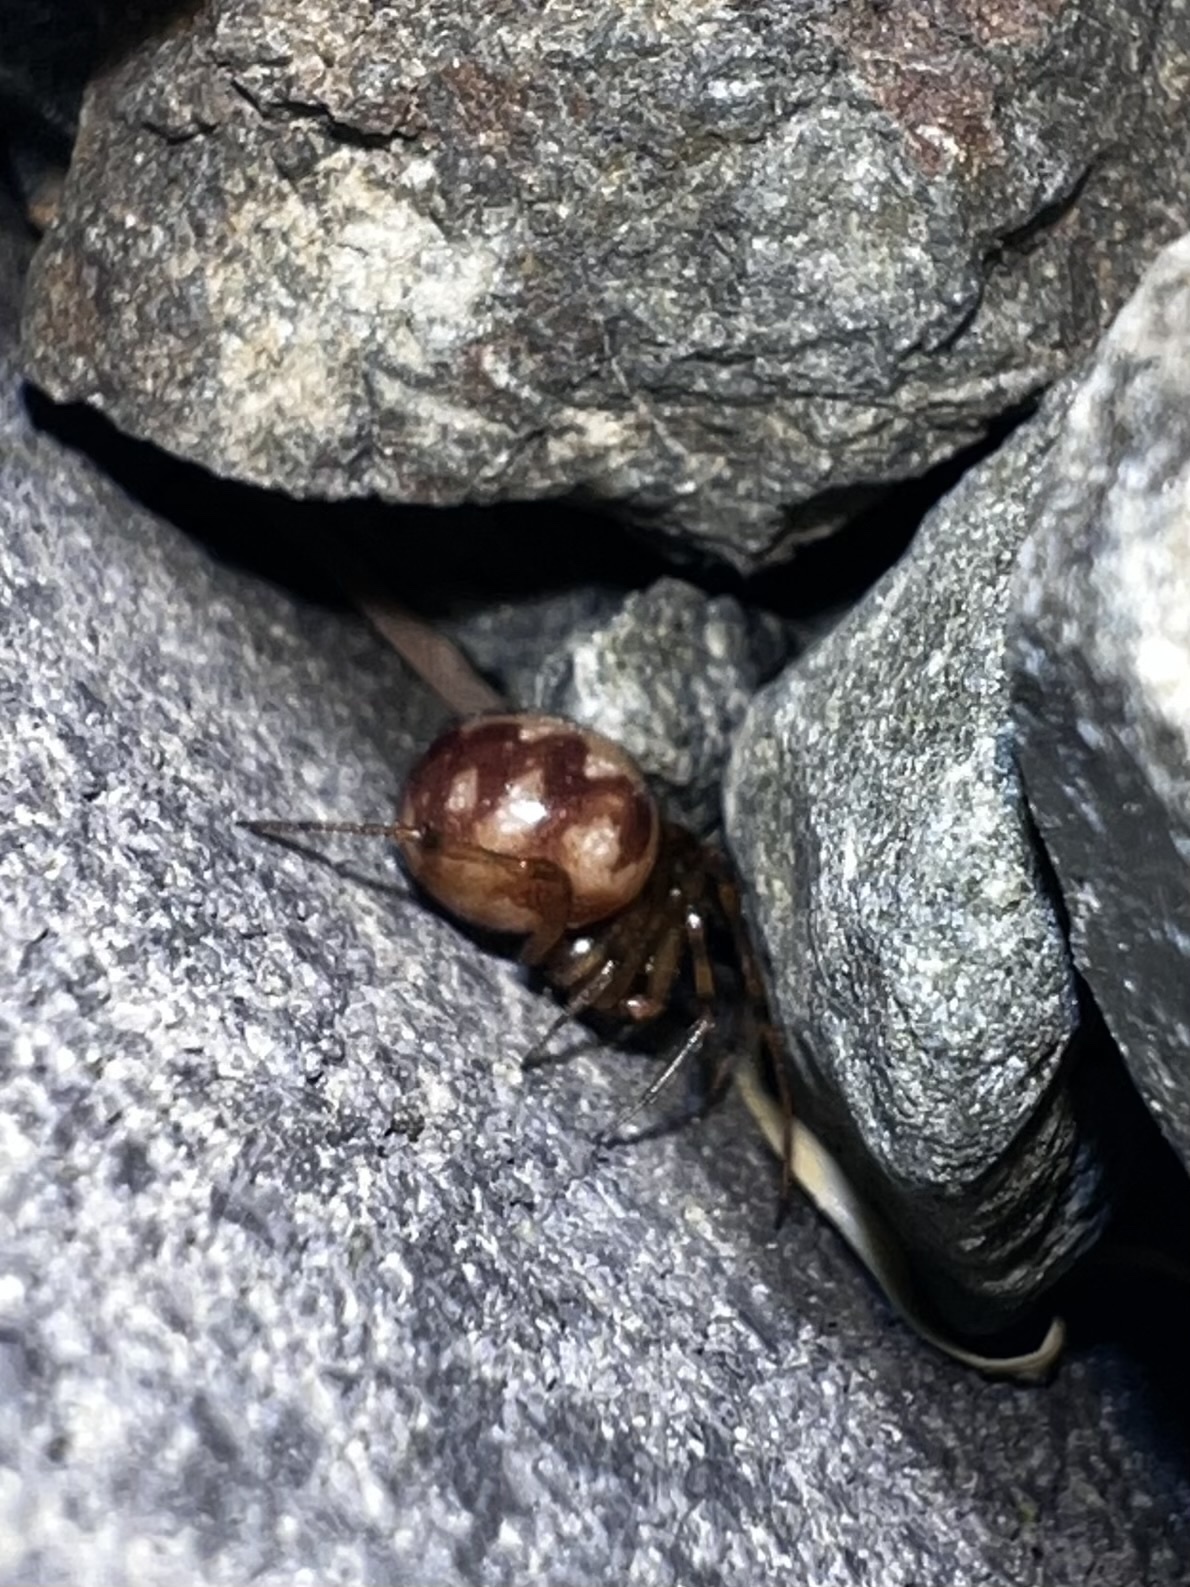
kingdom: Animalia
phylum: Arthropoda
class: Arachnida
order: Araneae
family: Theridiidae
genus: Steatoda
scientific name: Steatoda triangulosa
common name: Triangulate bud spider
